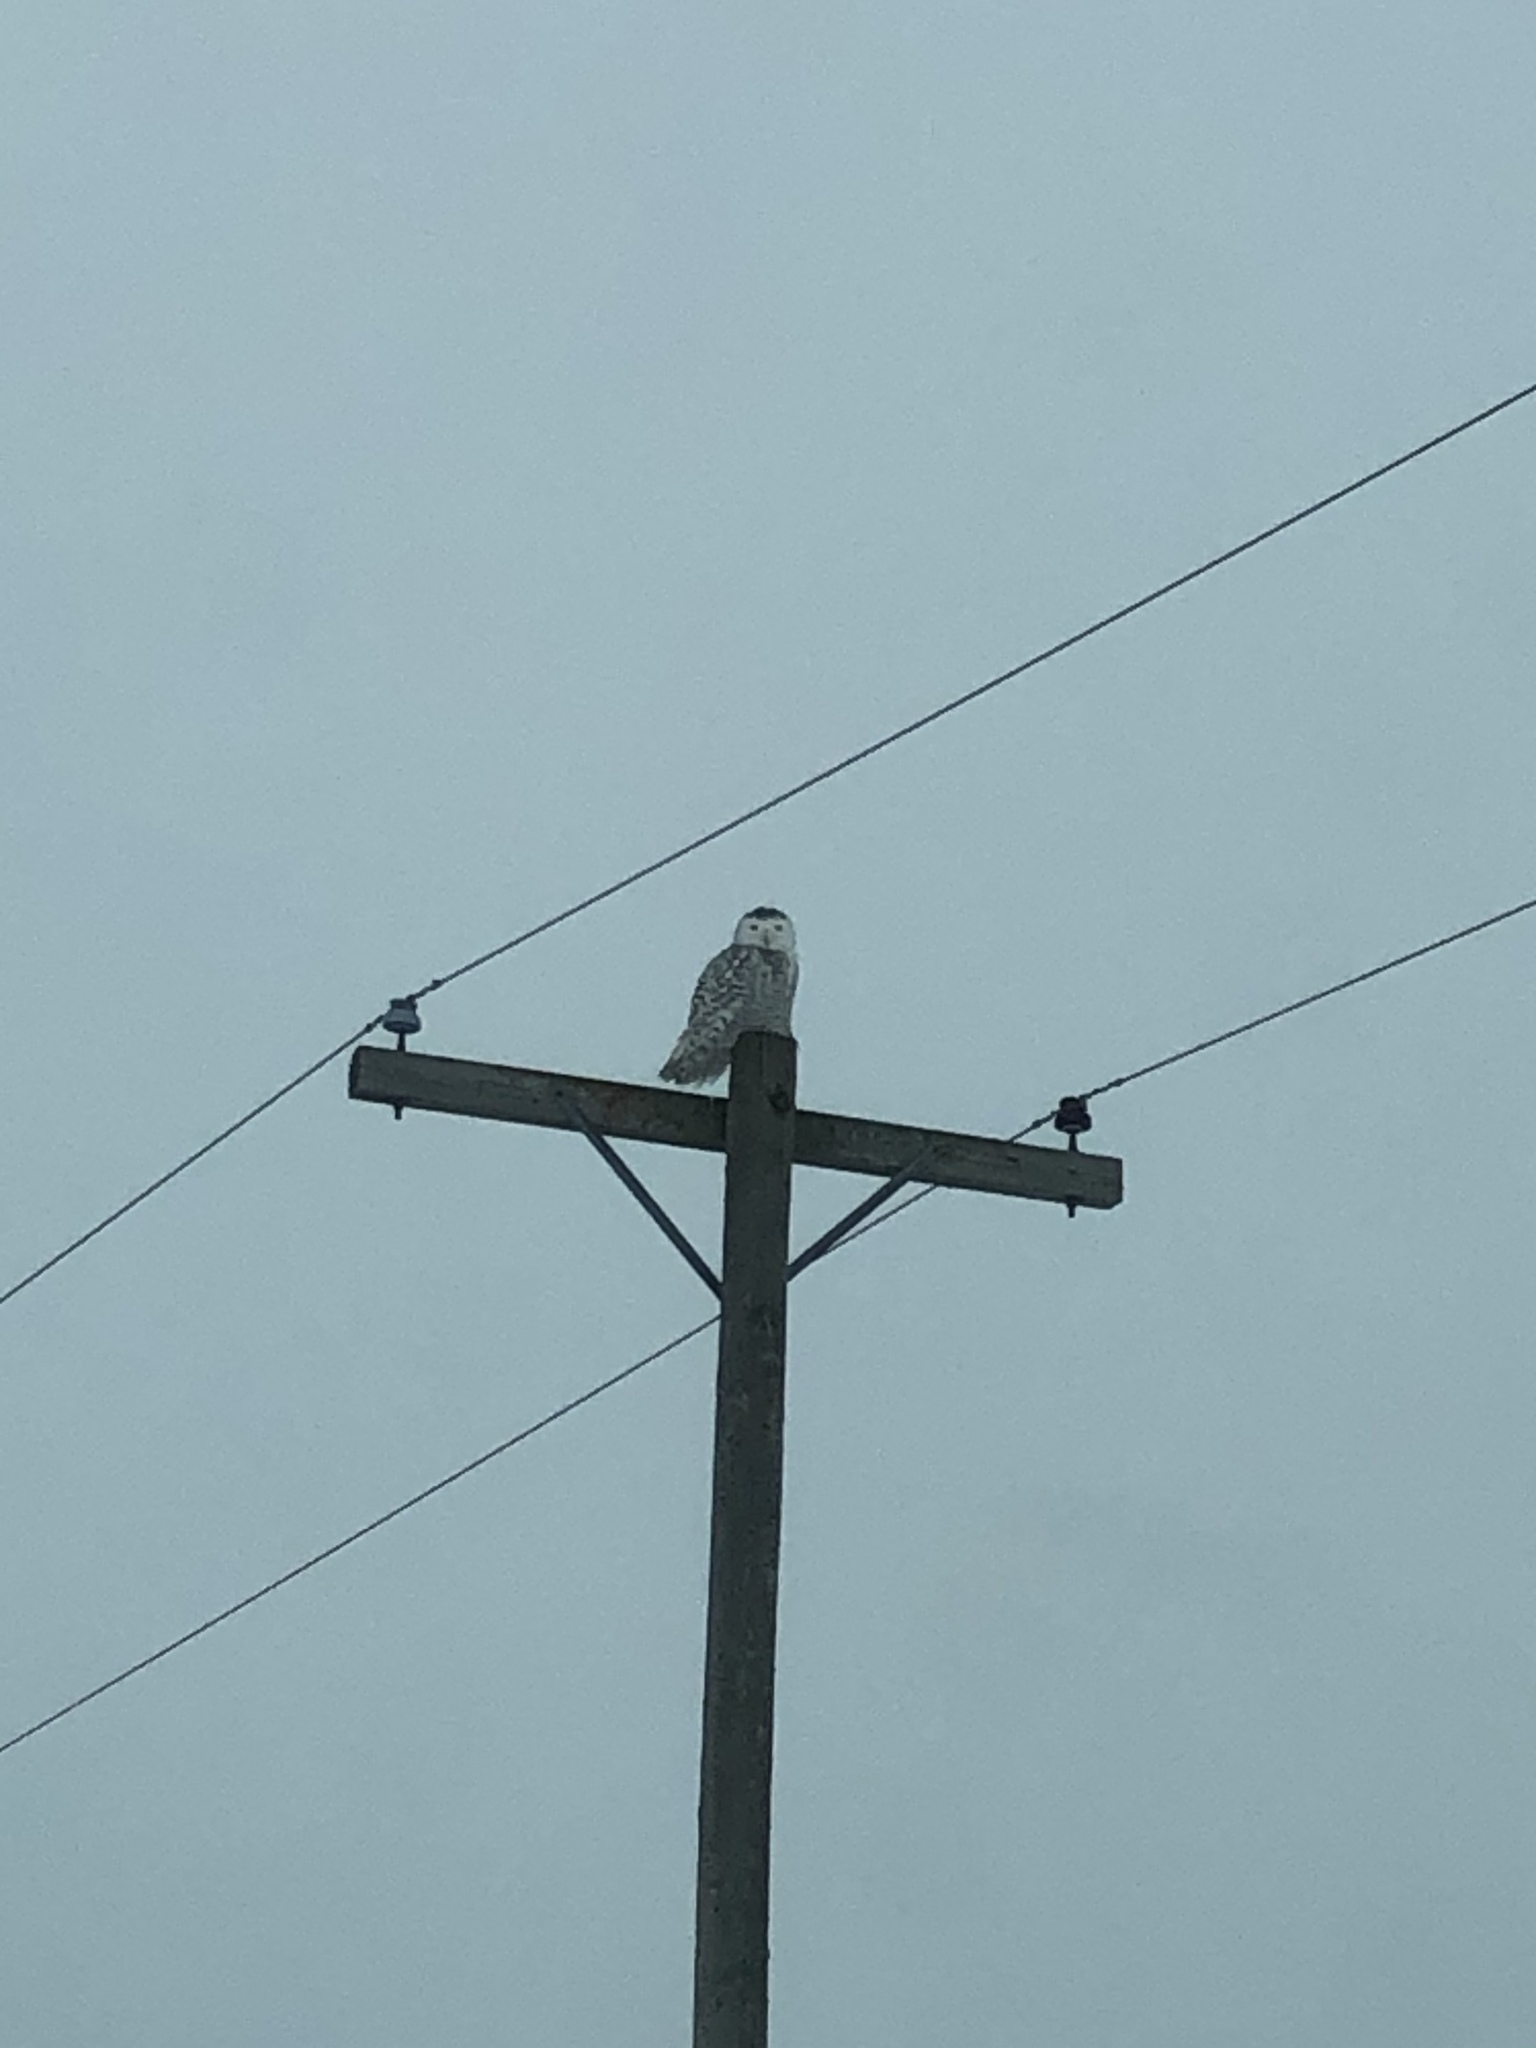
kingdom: Animalia
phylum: Chordata
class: Aves
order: Strigiformes
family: Strigidae
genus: Bubo
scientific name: Bubo scandiacus
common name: Snowy owl
